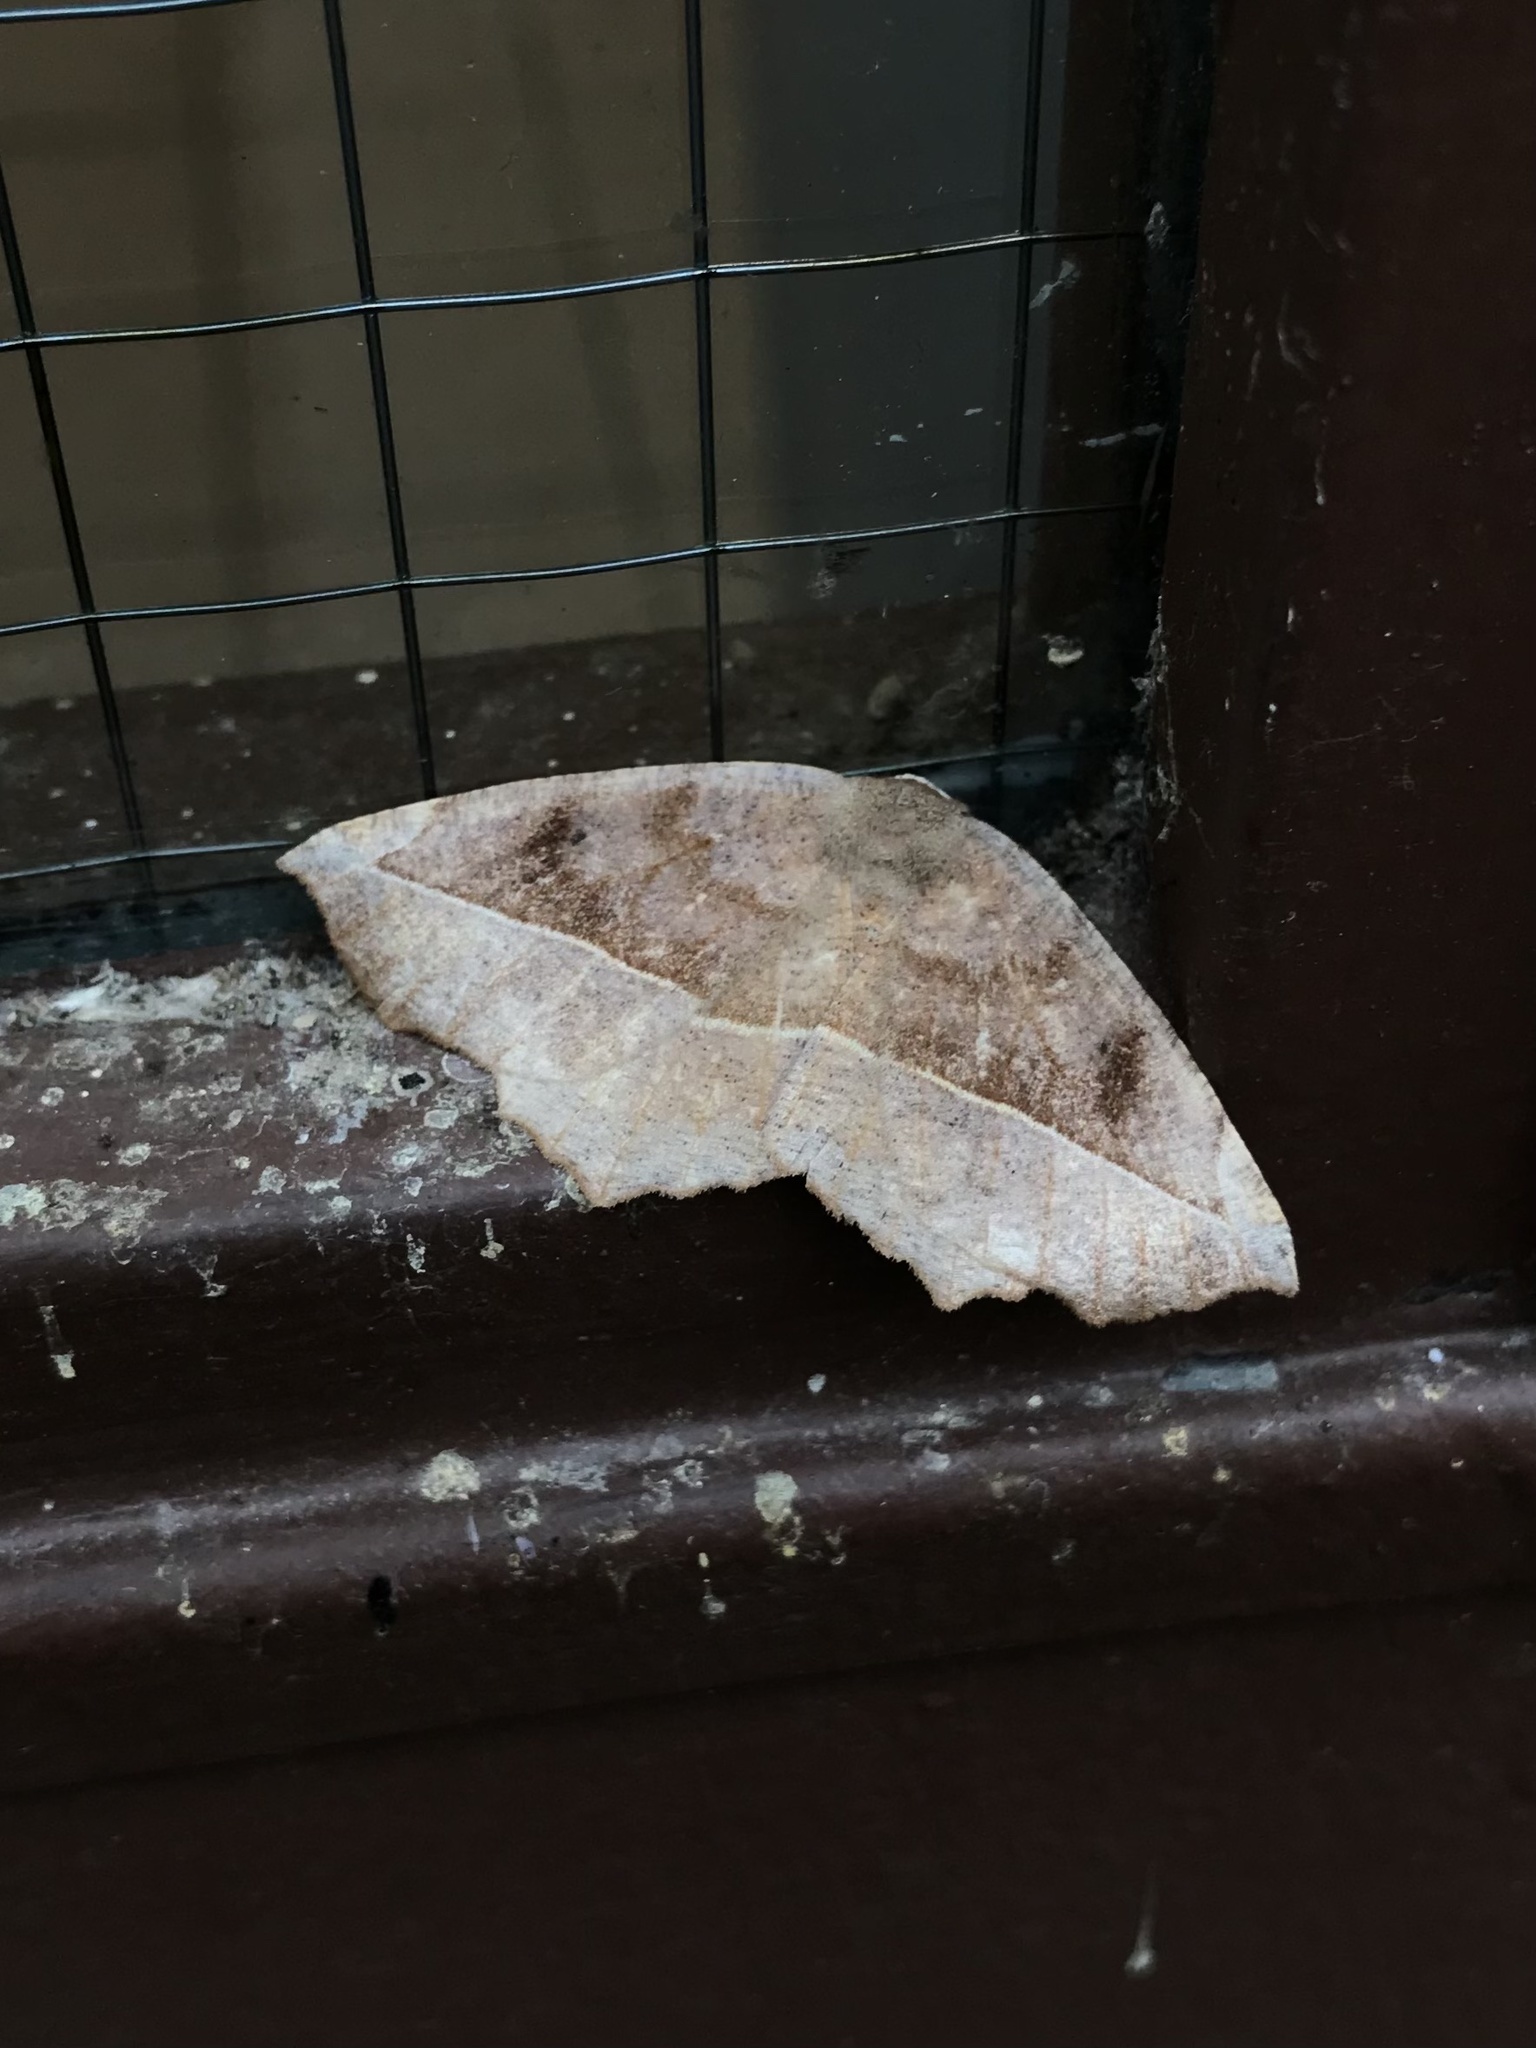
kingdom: Animalia
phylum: Arthropoda
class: Insecta
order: Lepidoptera
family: Geometridae
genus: Eutrapela
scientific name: Eutrapela clemataria
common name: Curved-toothed geometer
